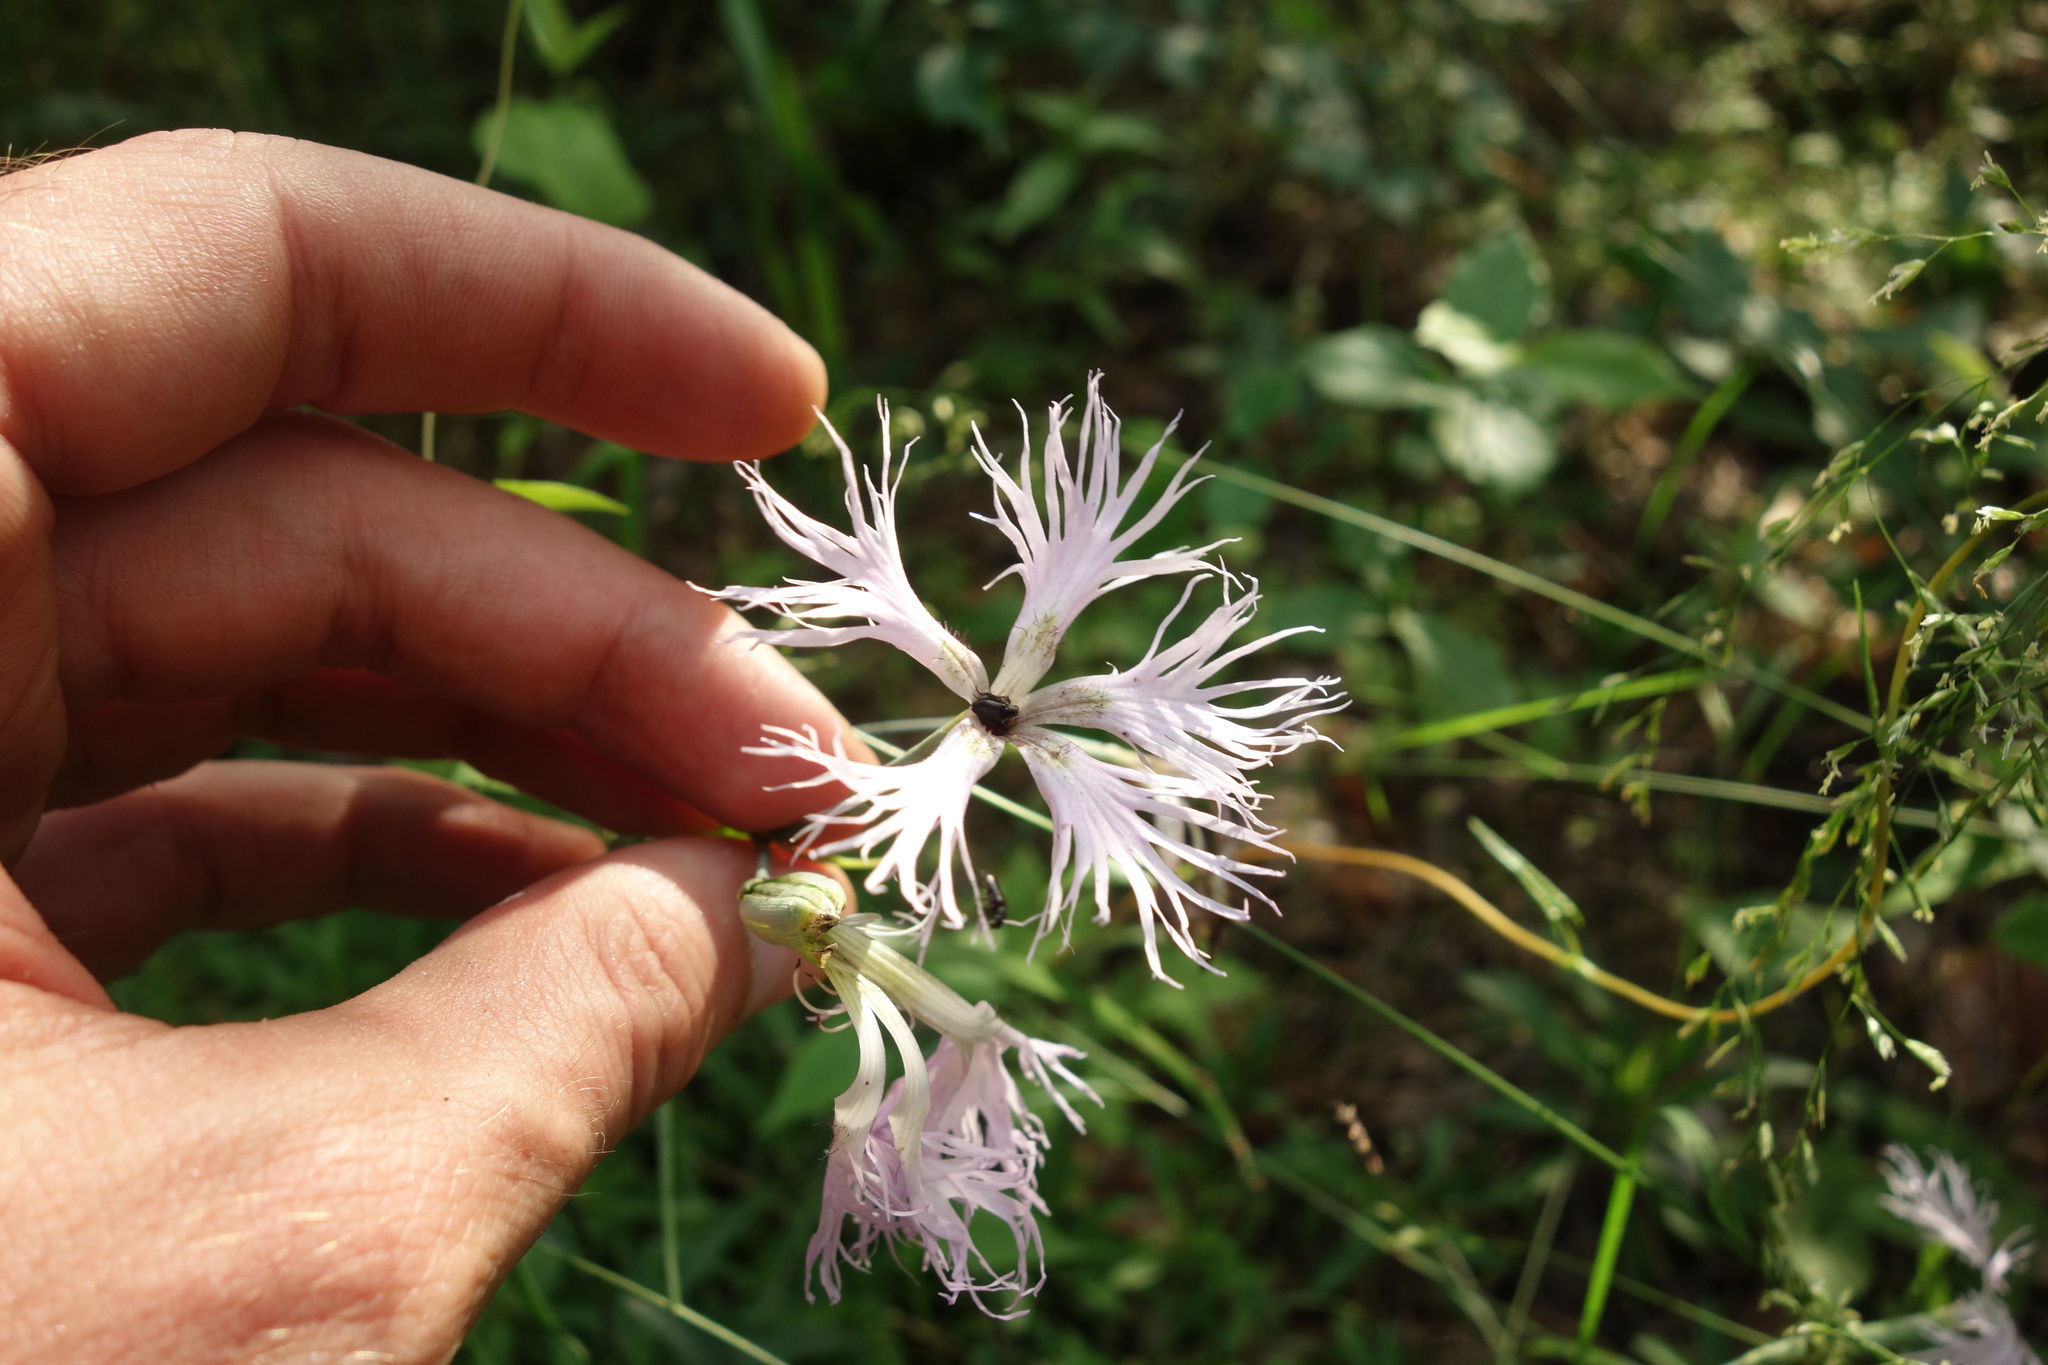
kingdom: Plantae
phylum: Tracheophyta
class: Magnoliopsida
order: Caryophyllales
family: Caryophyllaceae
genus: Dianthus
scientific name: Dianthus superbus
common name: Fringed pink
